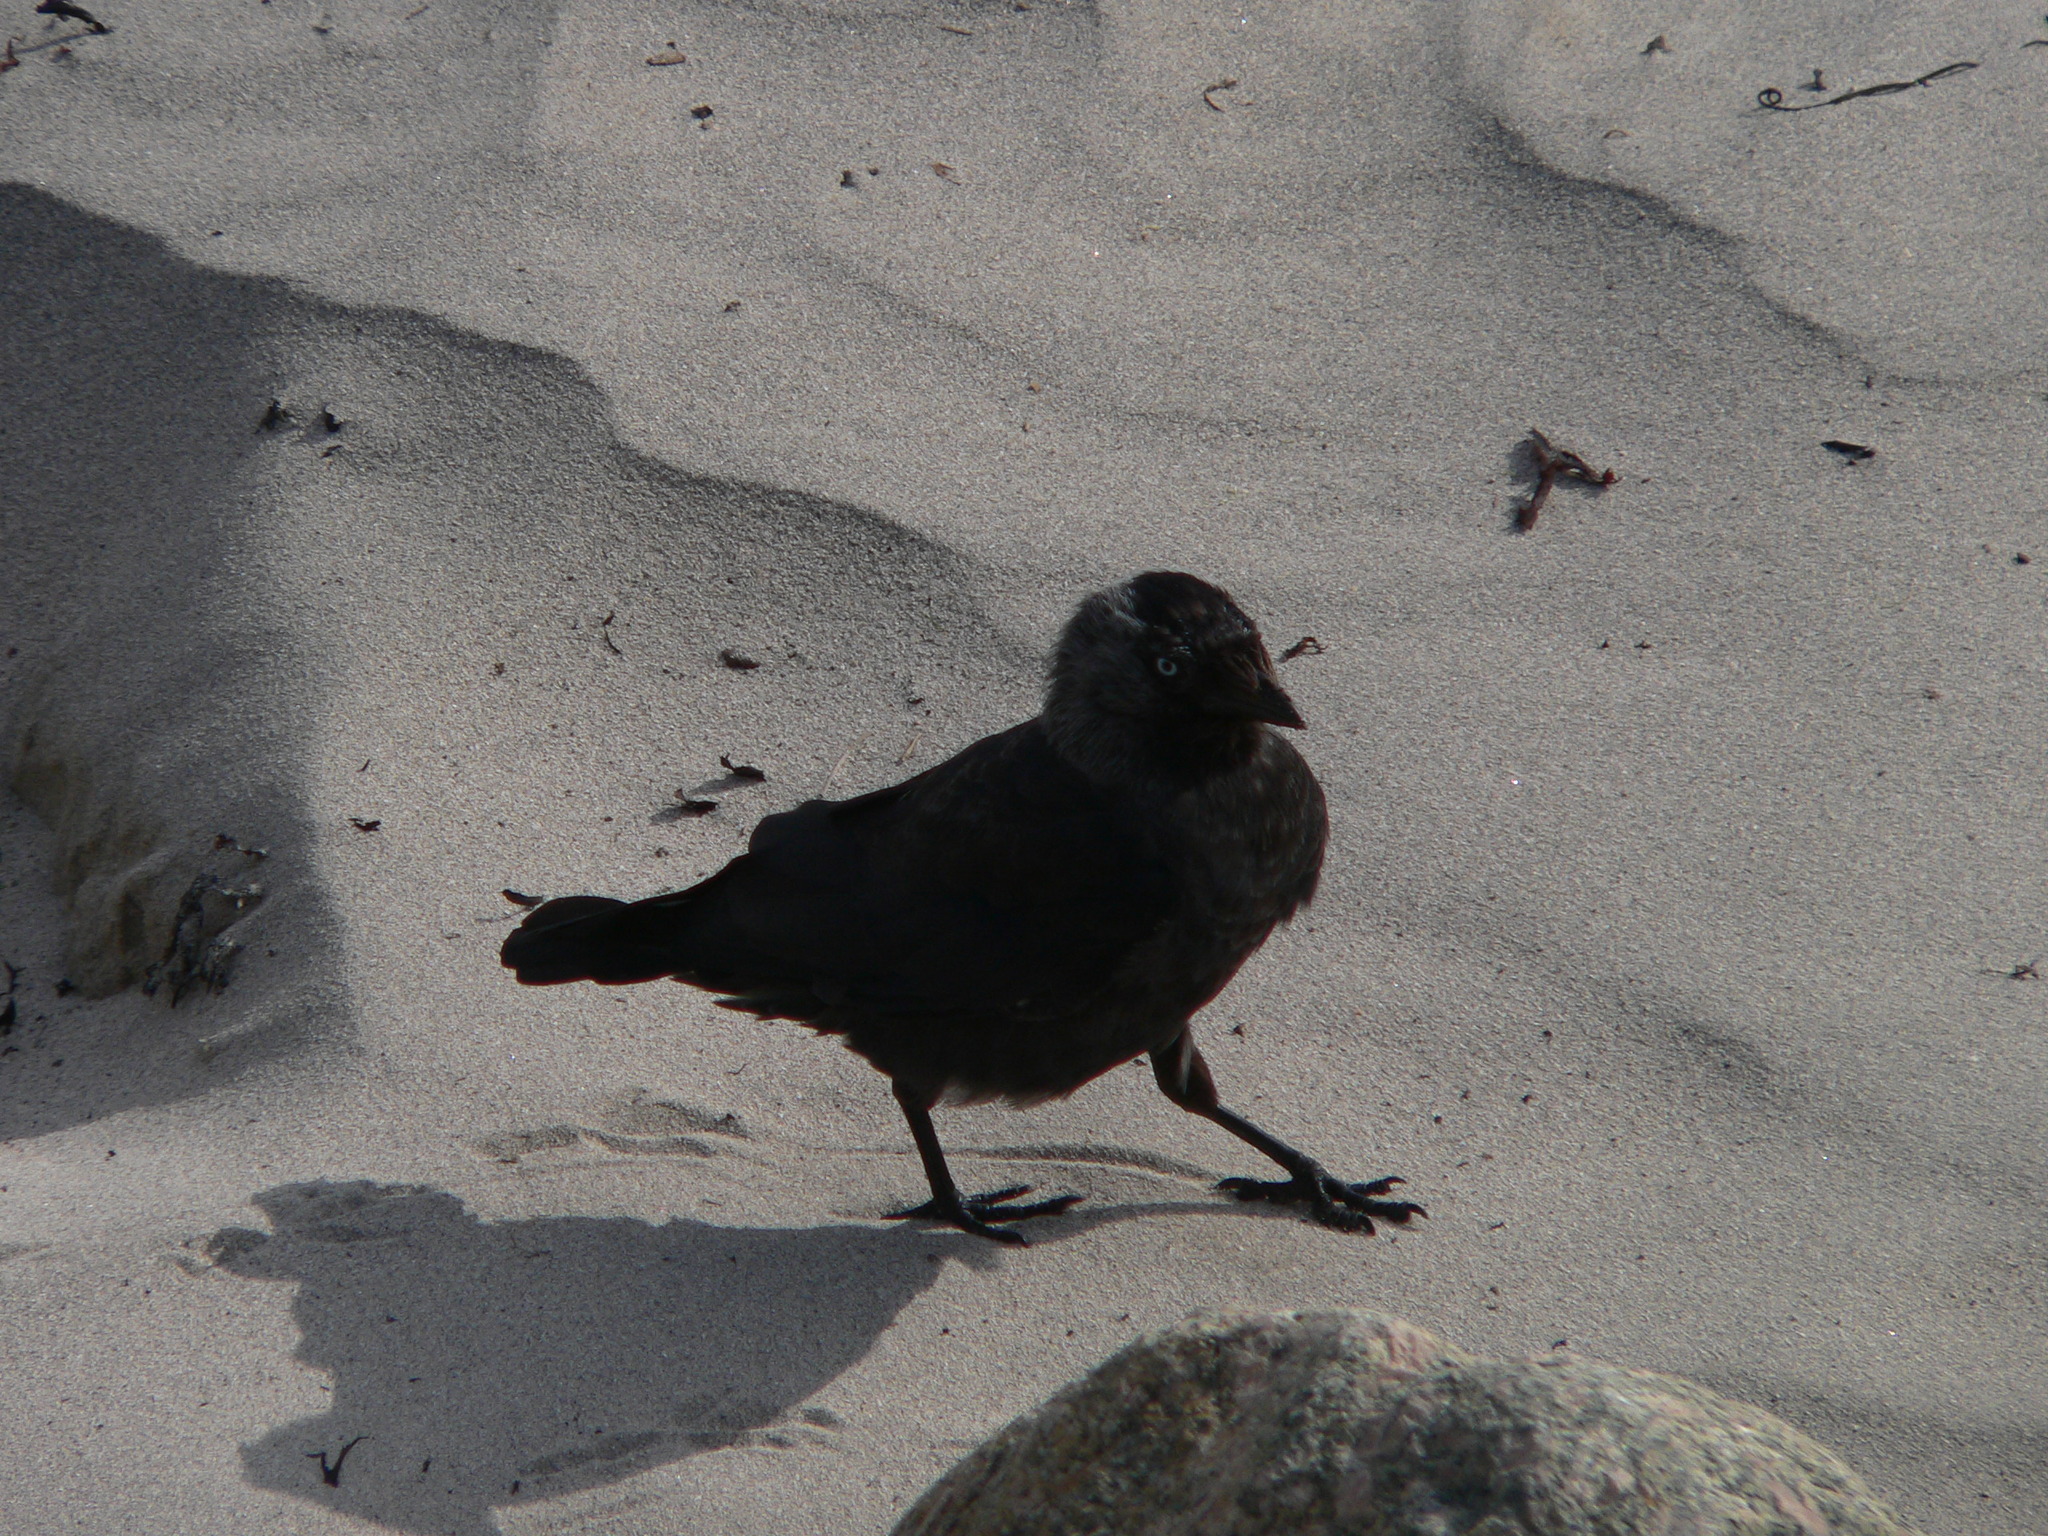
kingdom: Animalia
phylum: Chordata
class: Aves
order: Passeriformes
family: Corvidae
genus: Coloeus
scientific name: Coloeus monedula
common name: Western jackdaw
